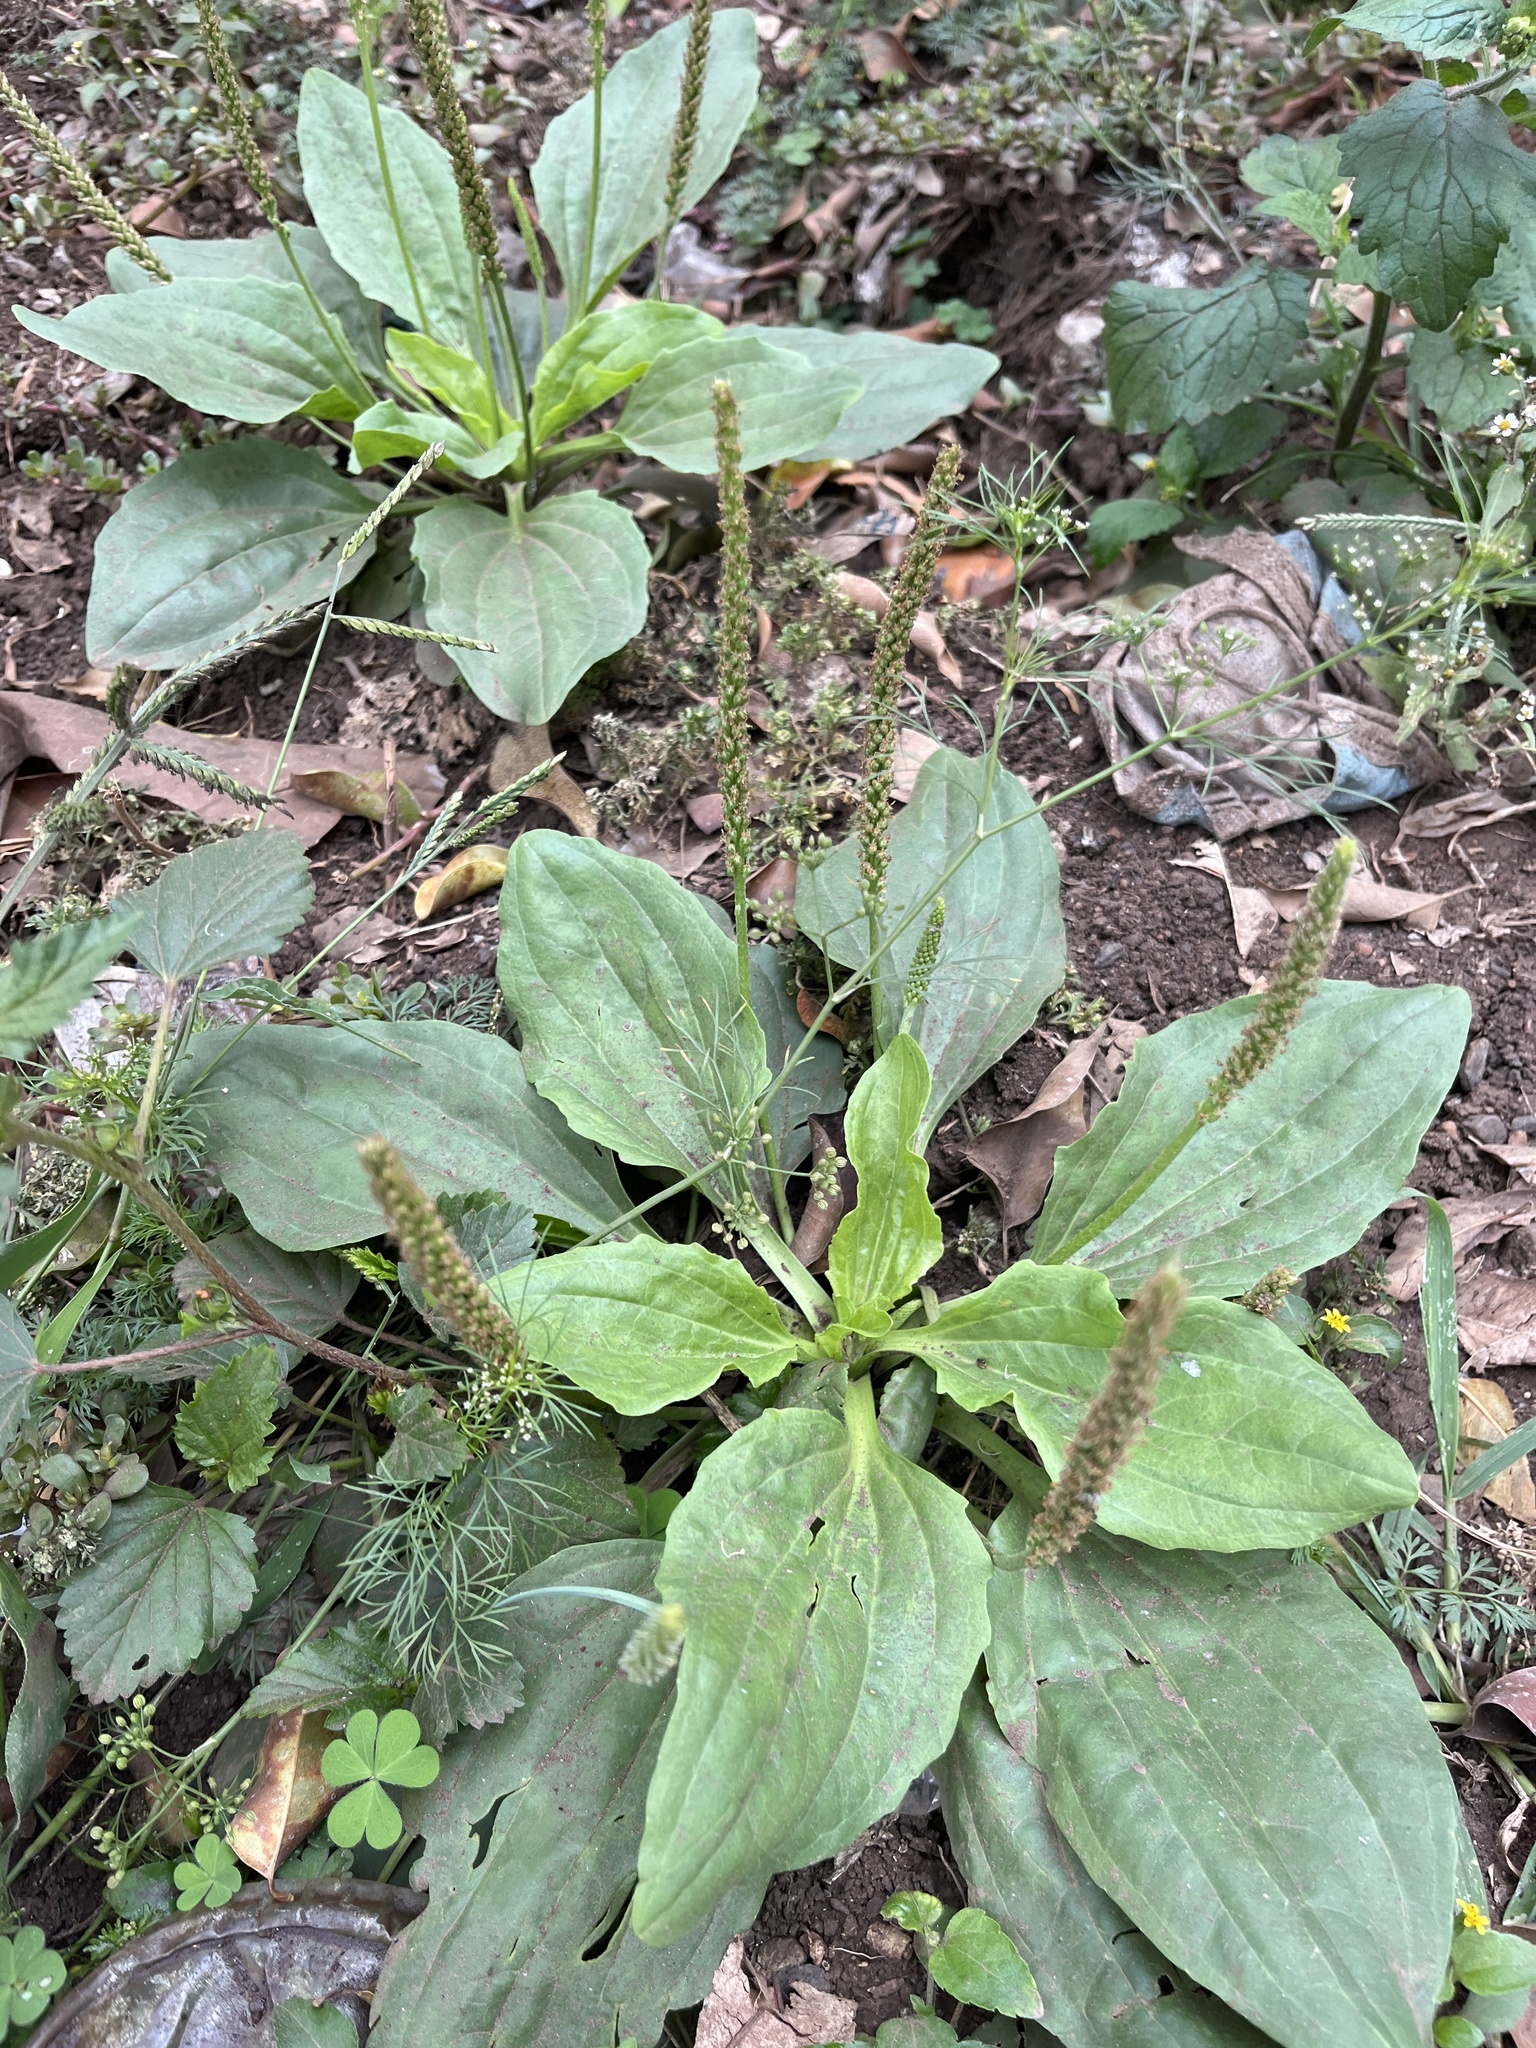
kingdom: Plantae
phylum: Tracheophyta
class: Magnoliopsida
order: Lamiales
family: Plantaginaceae
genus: Plantago
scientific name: Plantago major
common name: Common plantain
